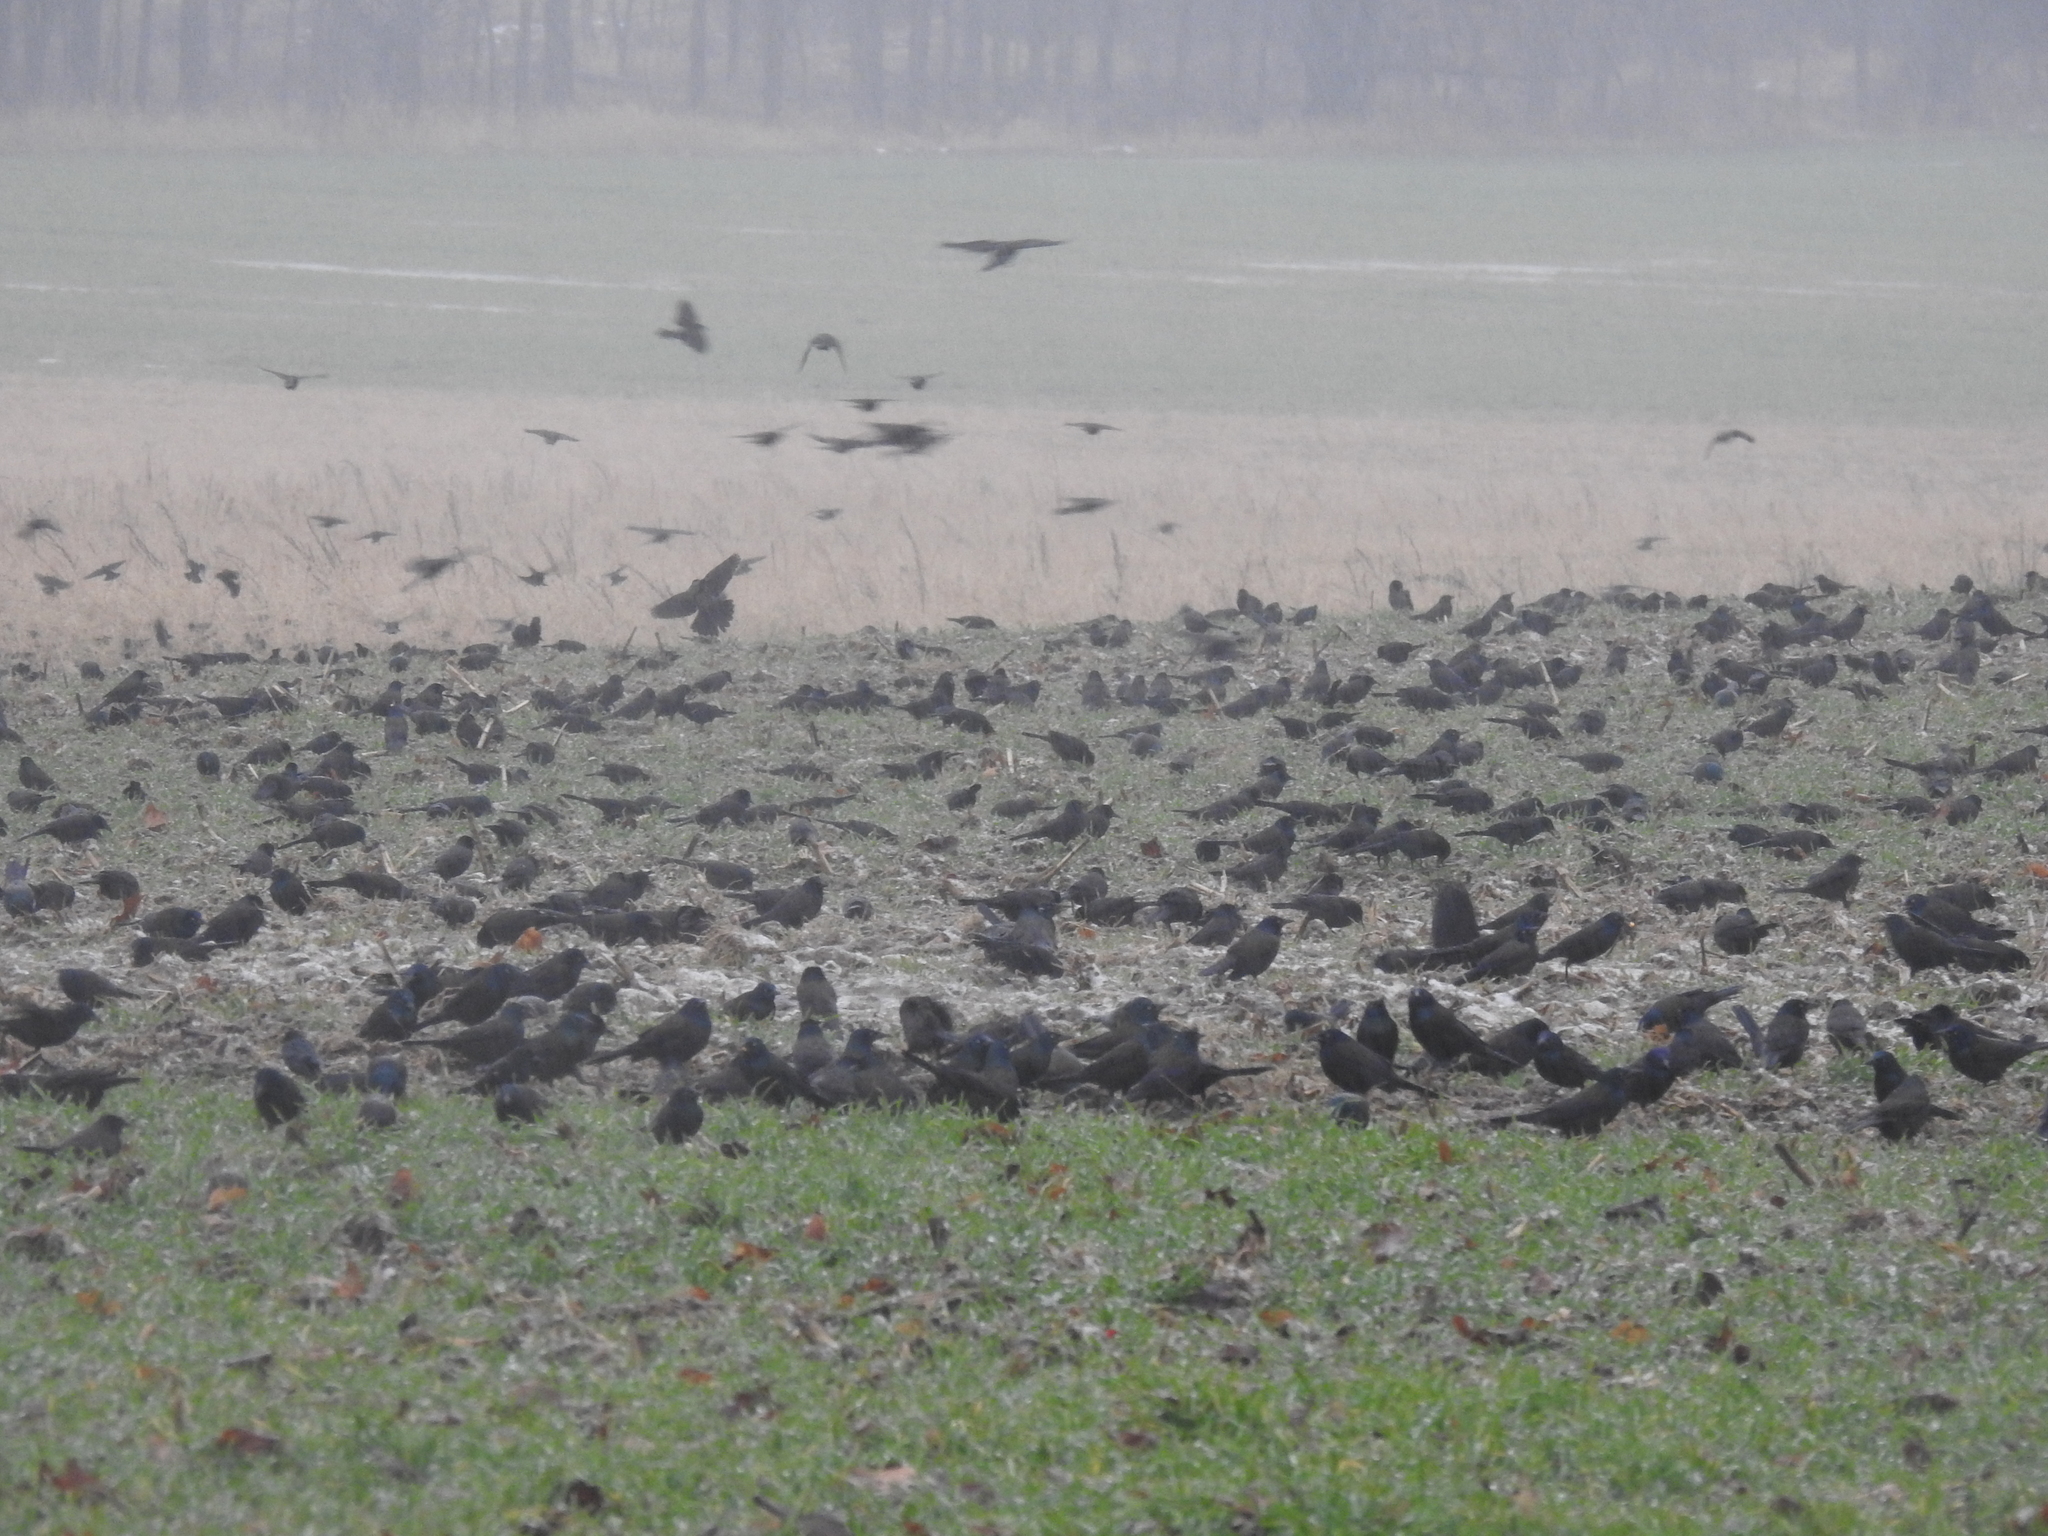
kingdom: Animalia
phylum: Chordata
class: Aves
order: Passeriformes
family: Icteridae
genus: Quiscalus
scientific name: Quiscalus quiscula
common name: Common grackle
